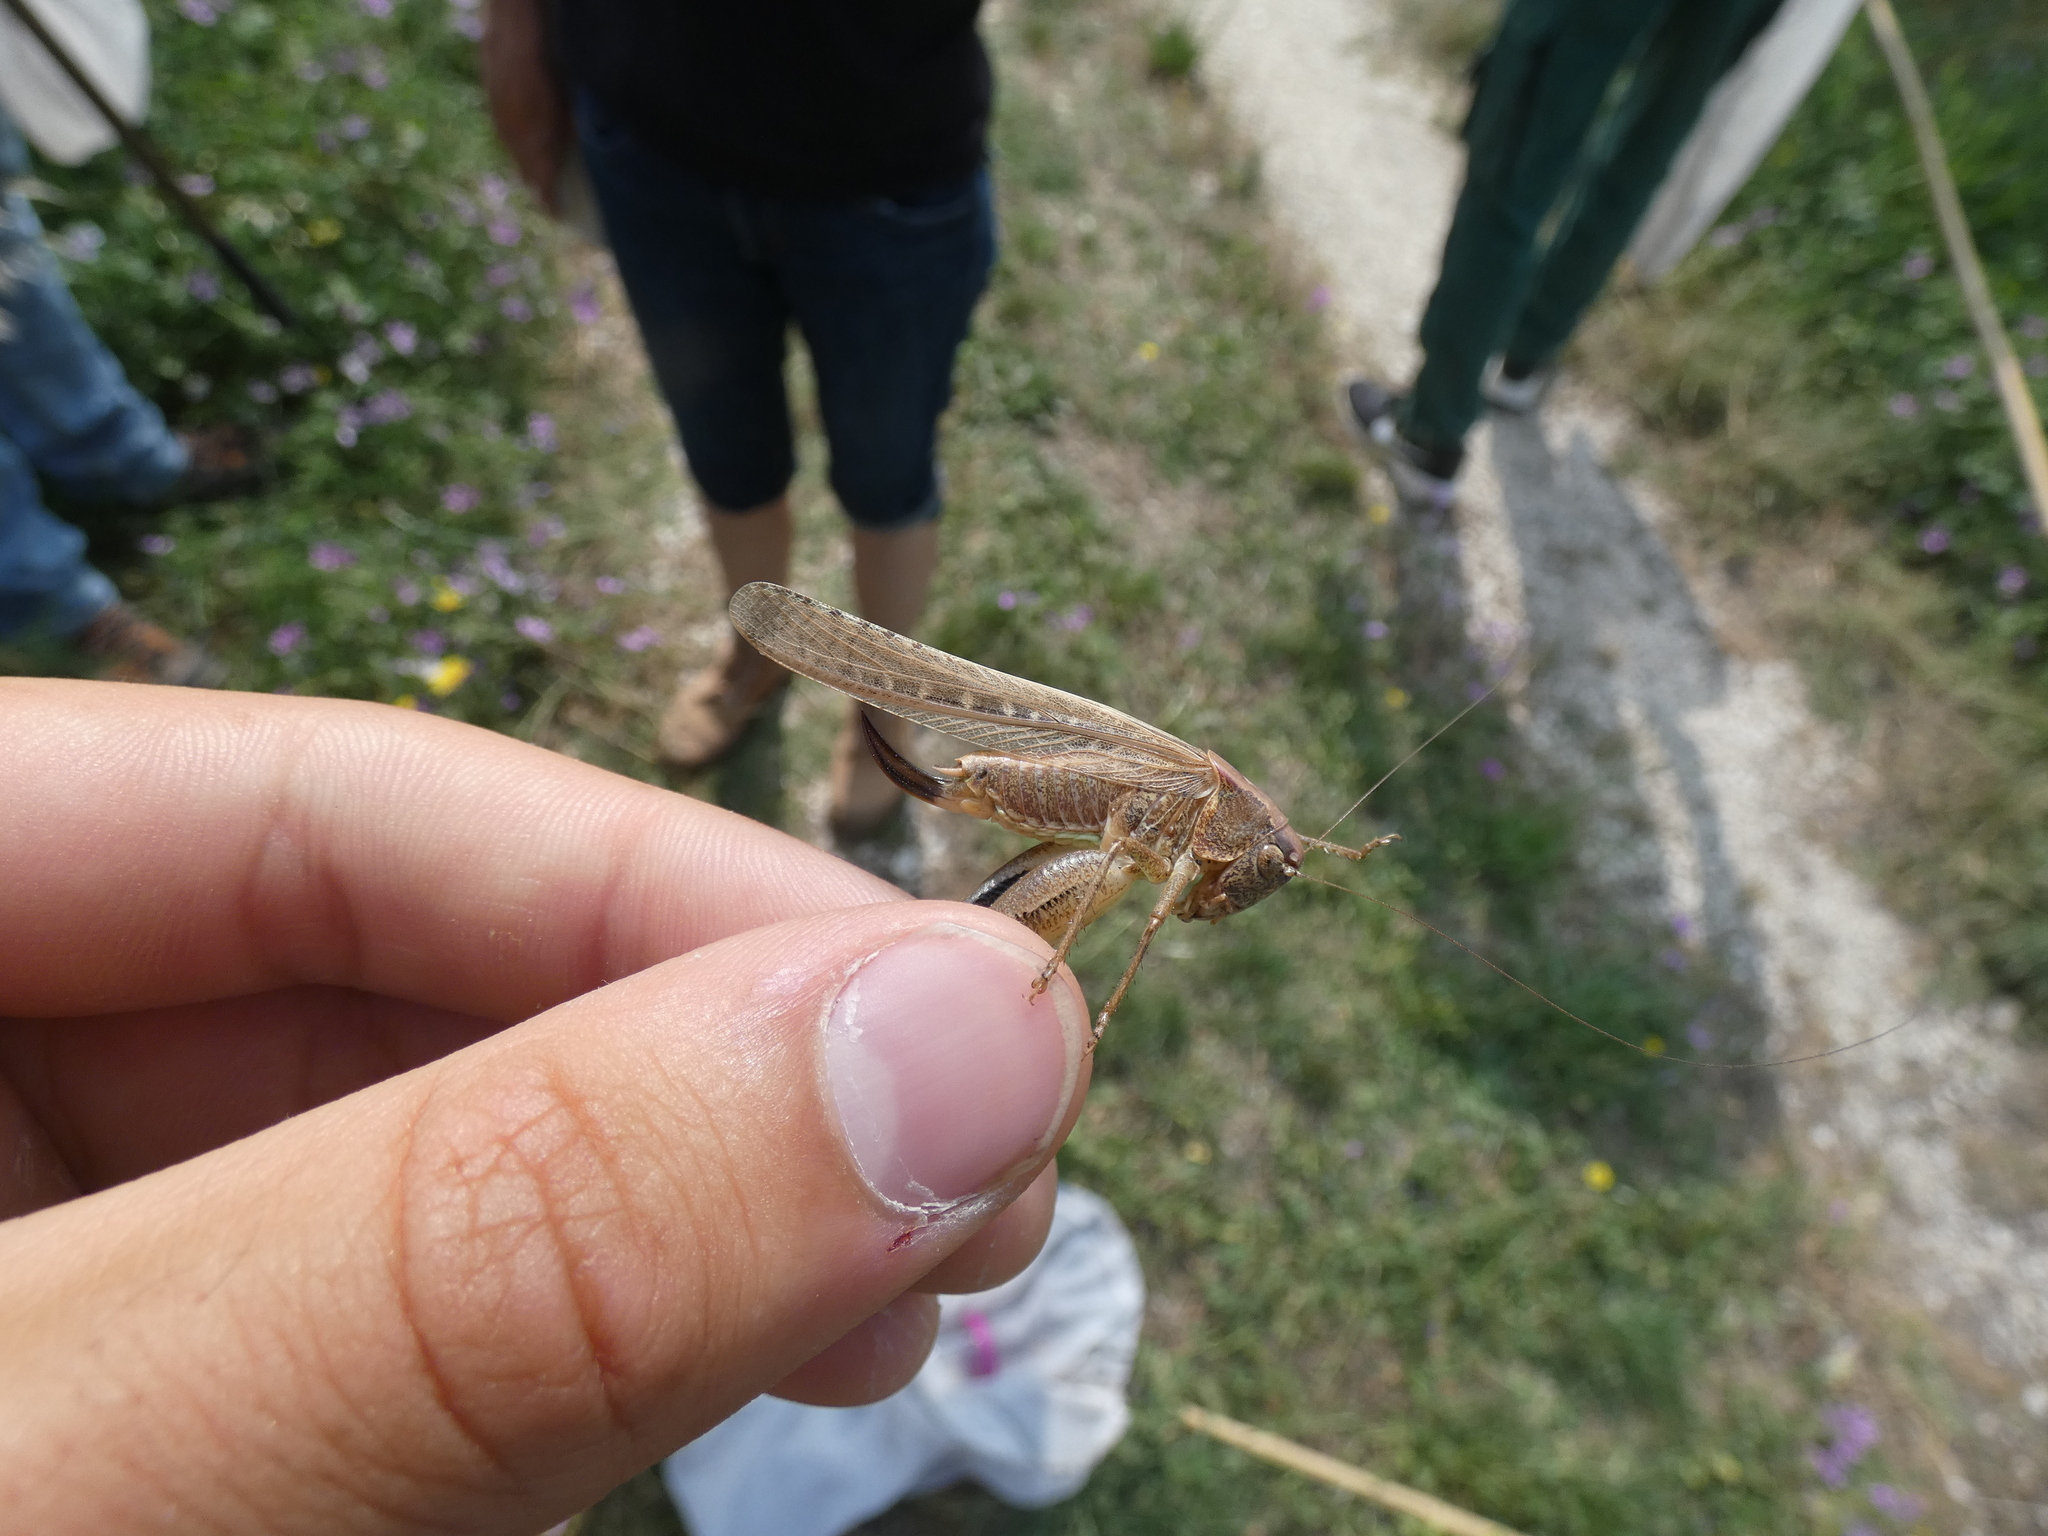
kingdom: Animalia
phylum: Arthropoda
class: Insecta
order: Orthoptera
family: Tettigoniidae
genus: Platycleis
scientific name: Platycleis intermedia
